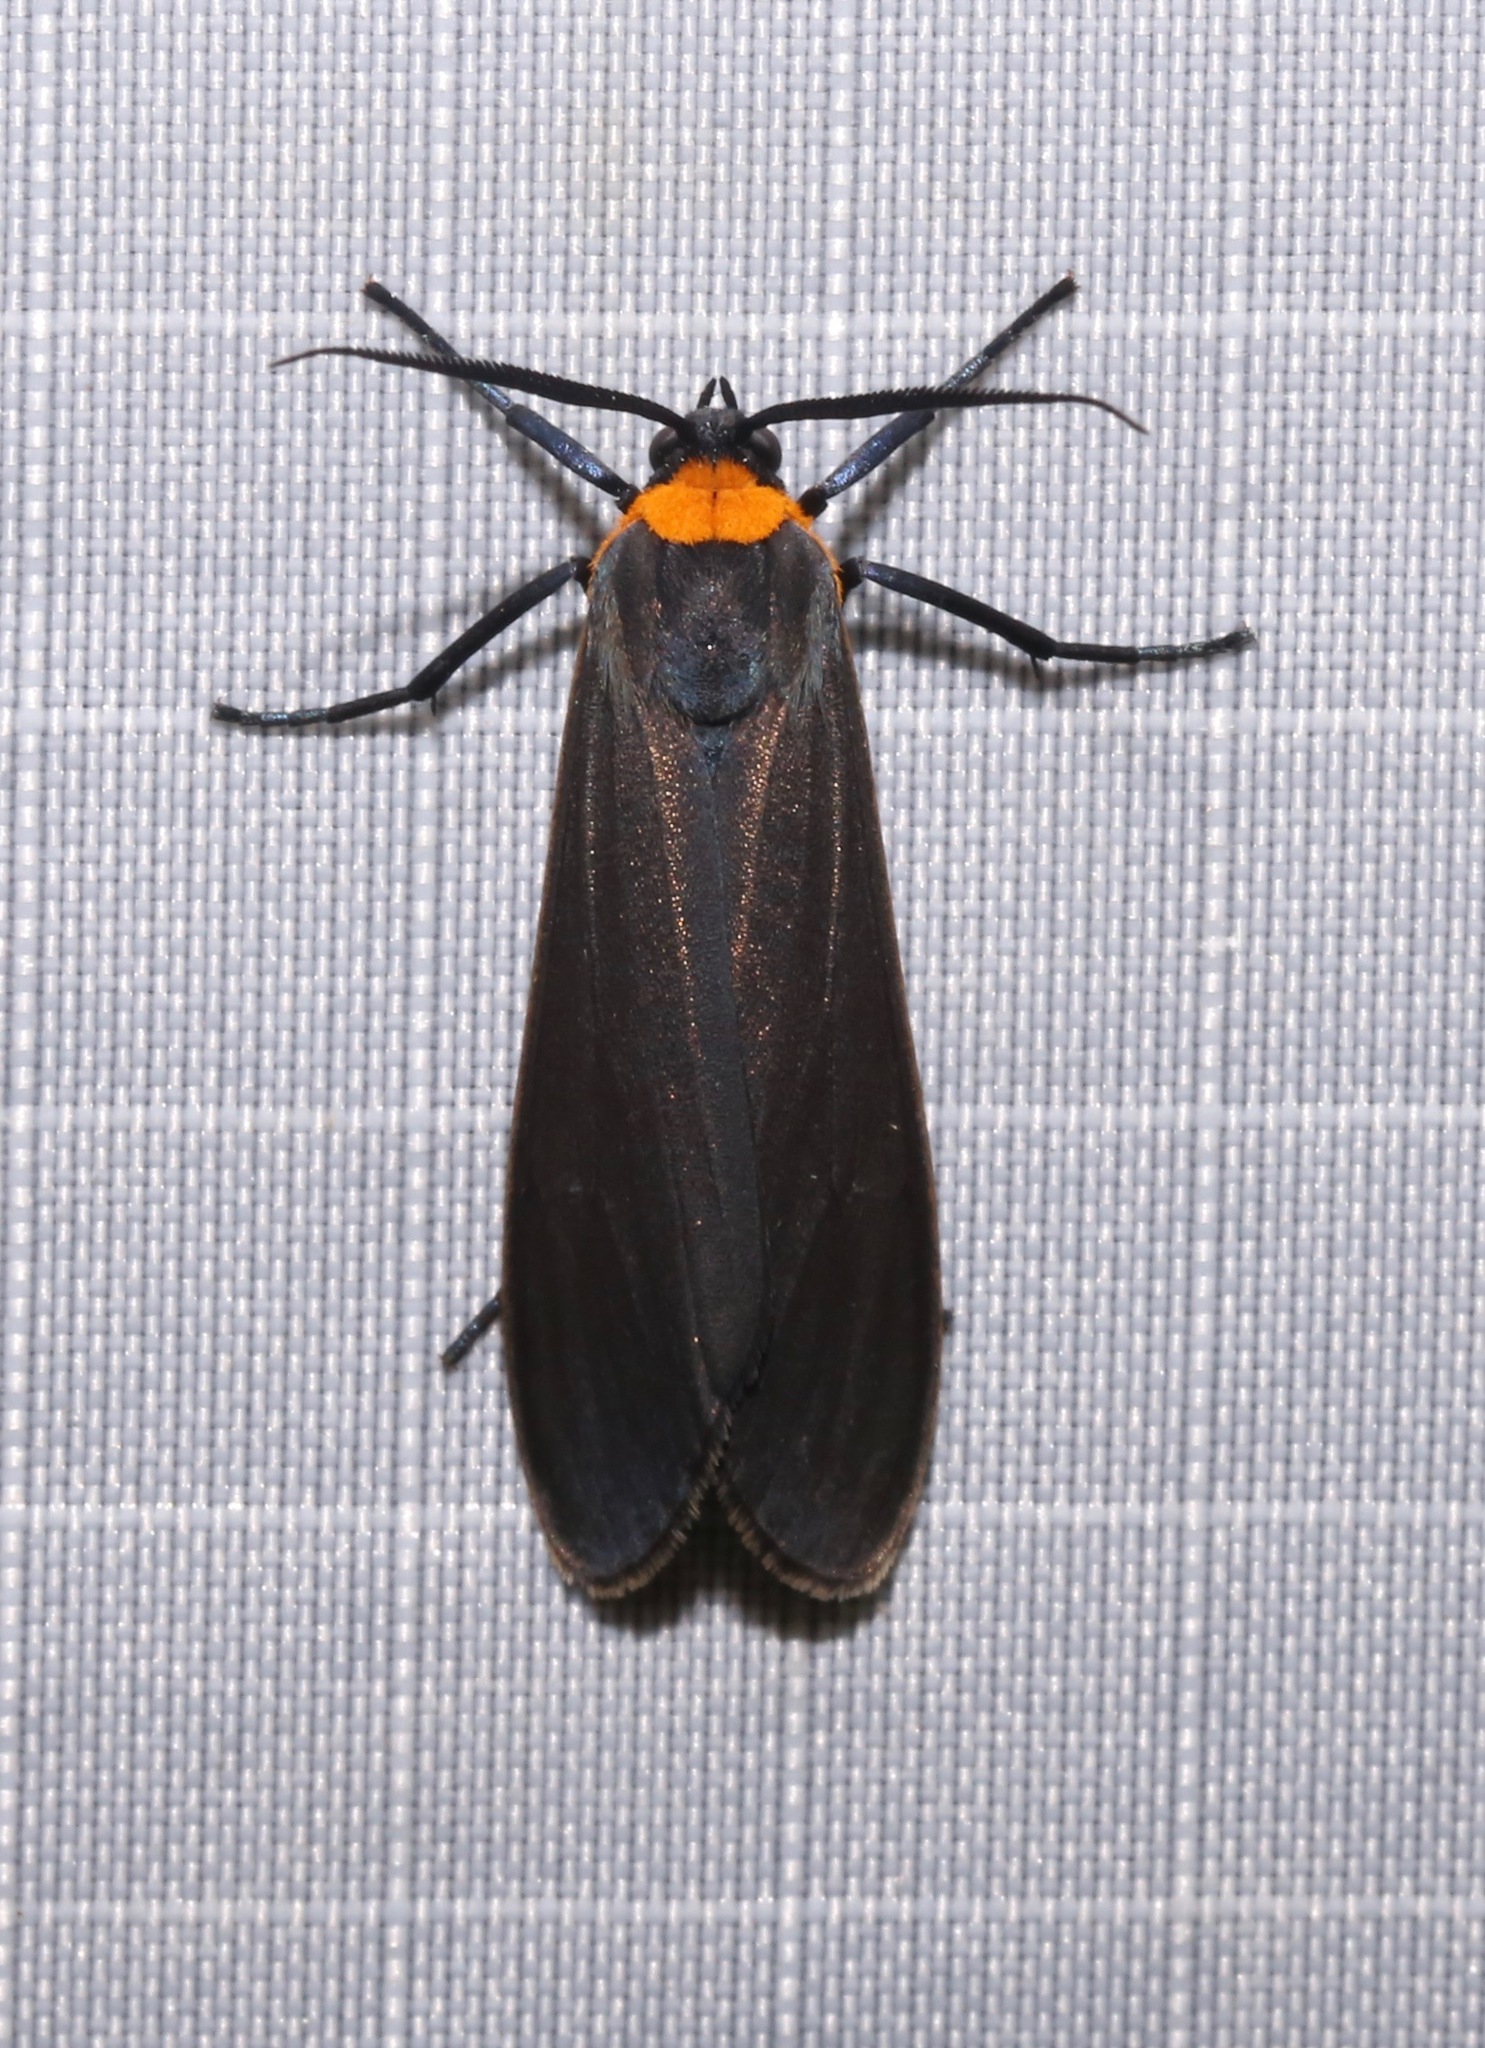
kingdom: Animalia
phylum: Arthropoda
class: Insecta
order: Lepidoptera
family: Erebidae
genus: Cisseps
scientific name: Cisseps fulvicollis
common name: Yellow-collared scape moth
